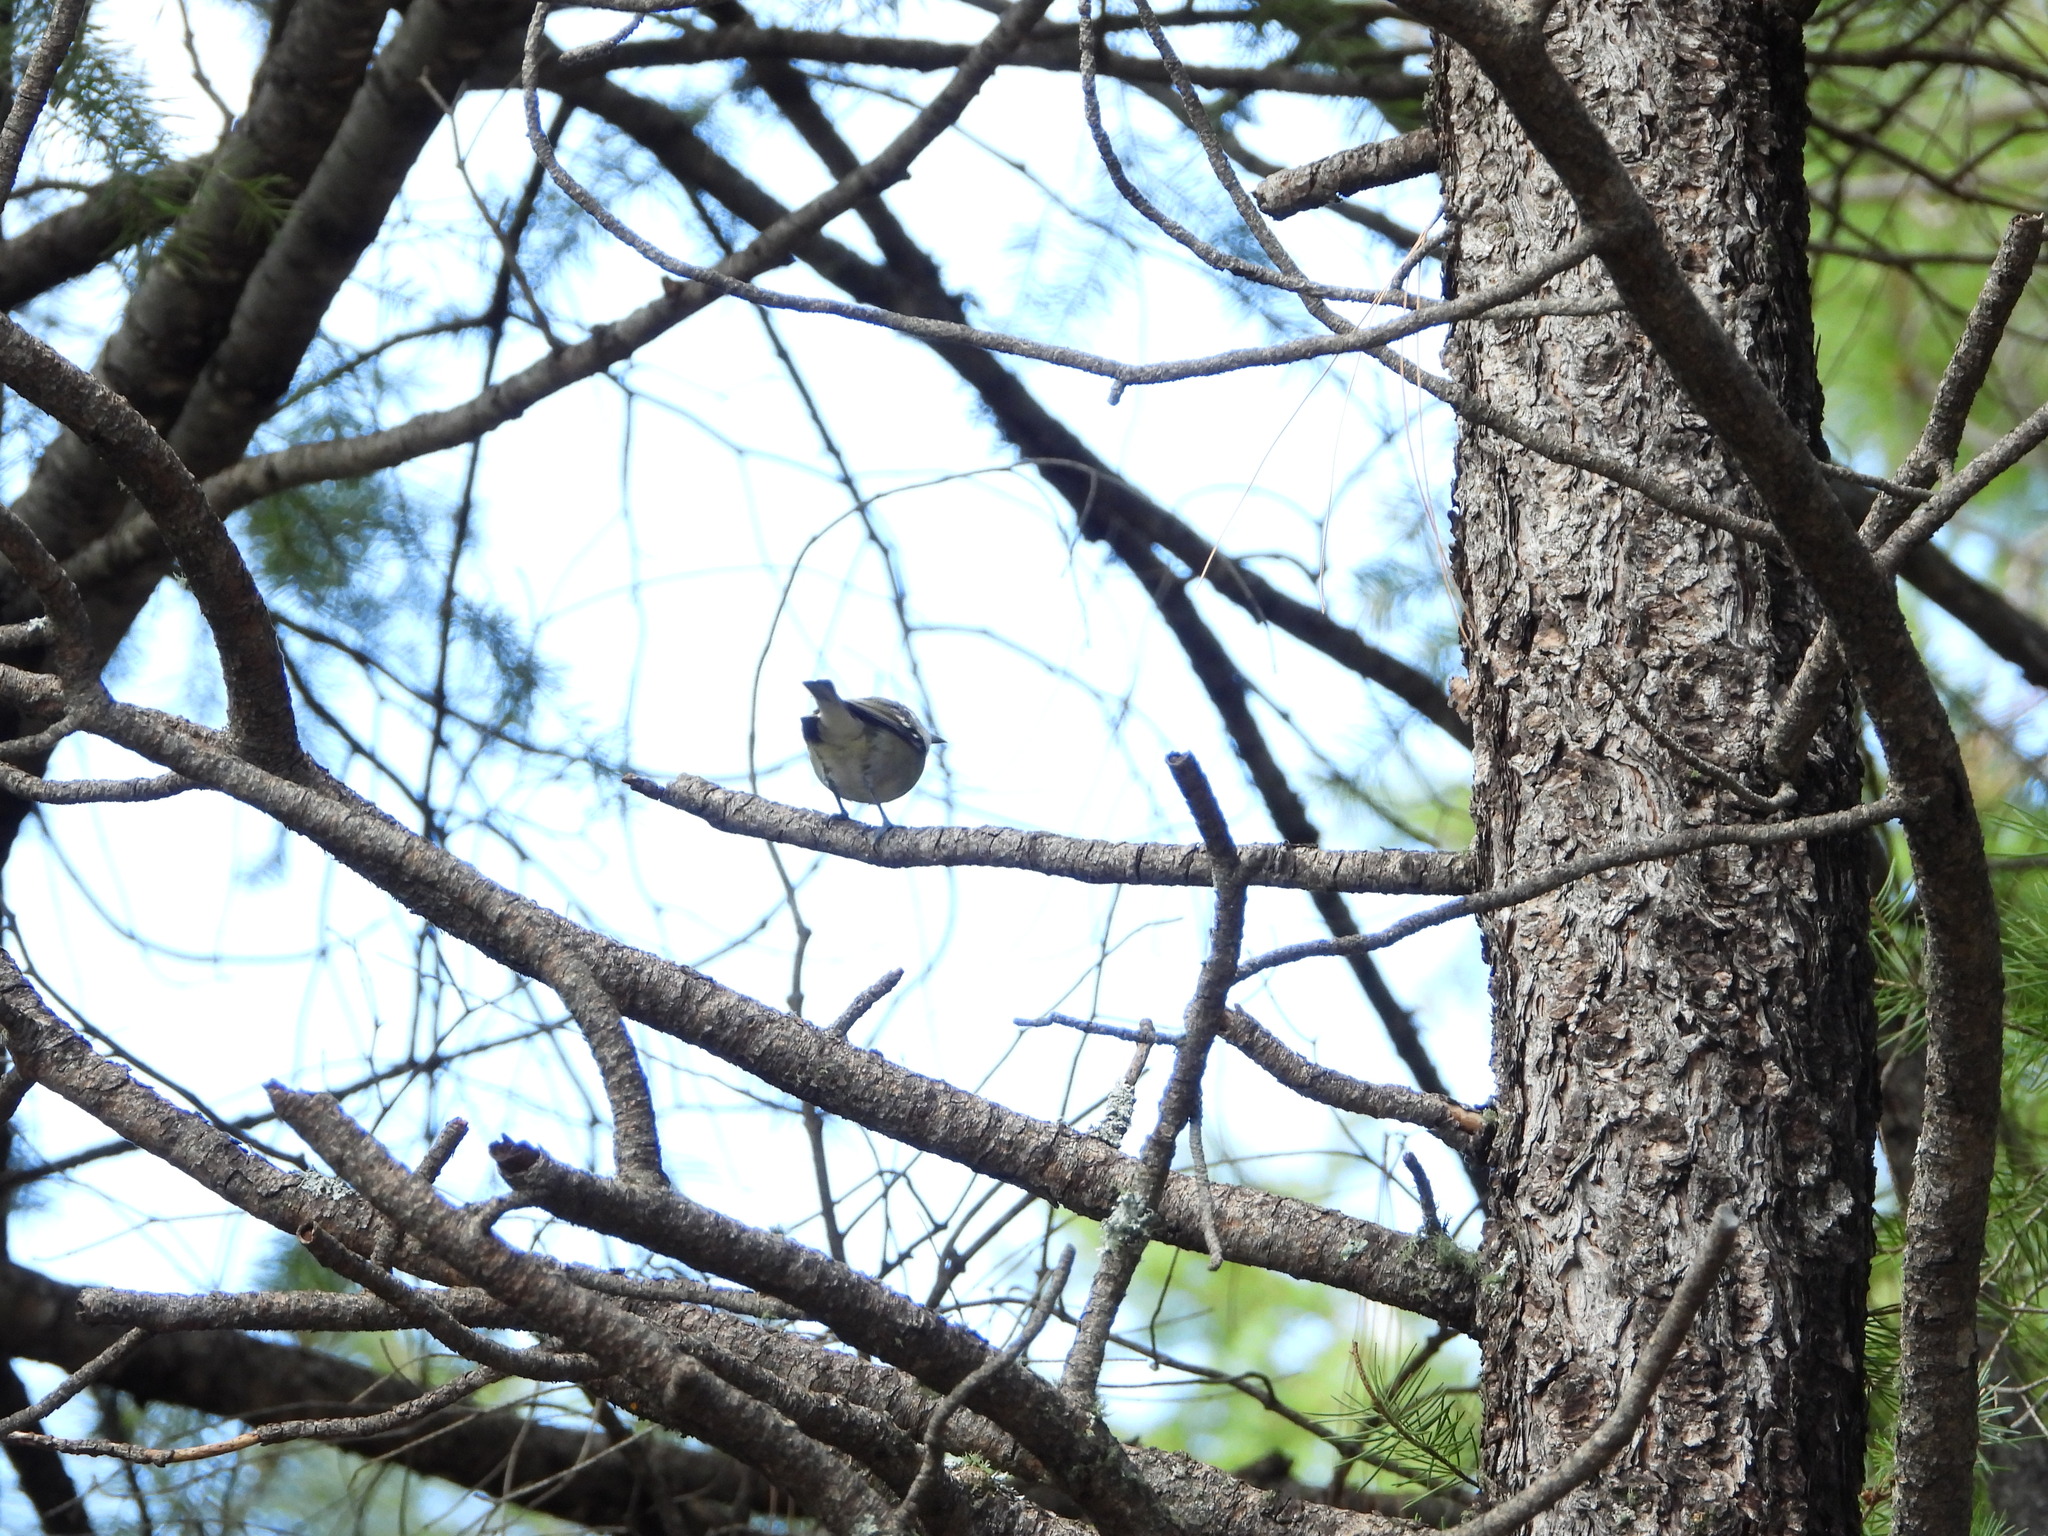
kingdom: Animalia
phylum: Chordata
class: Aves
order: Passeriformes
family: Vireonidae
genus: Vireo
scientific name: Vireo plumbeus
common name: Plumbeous vireo
